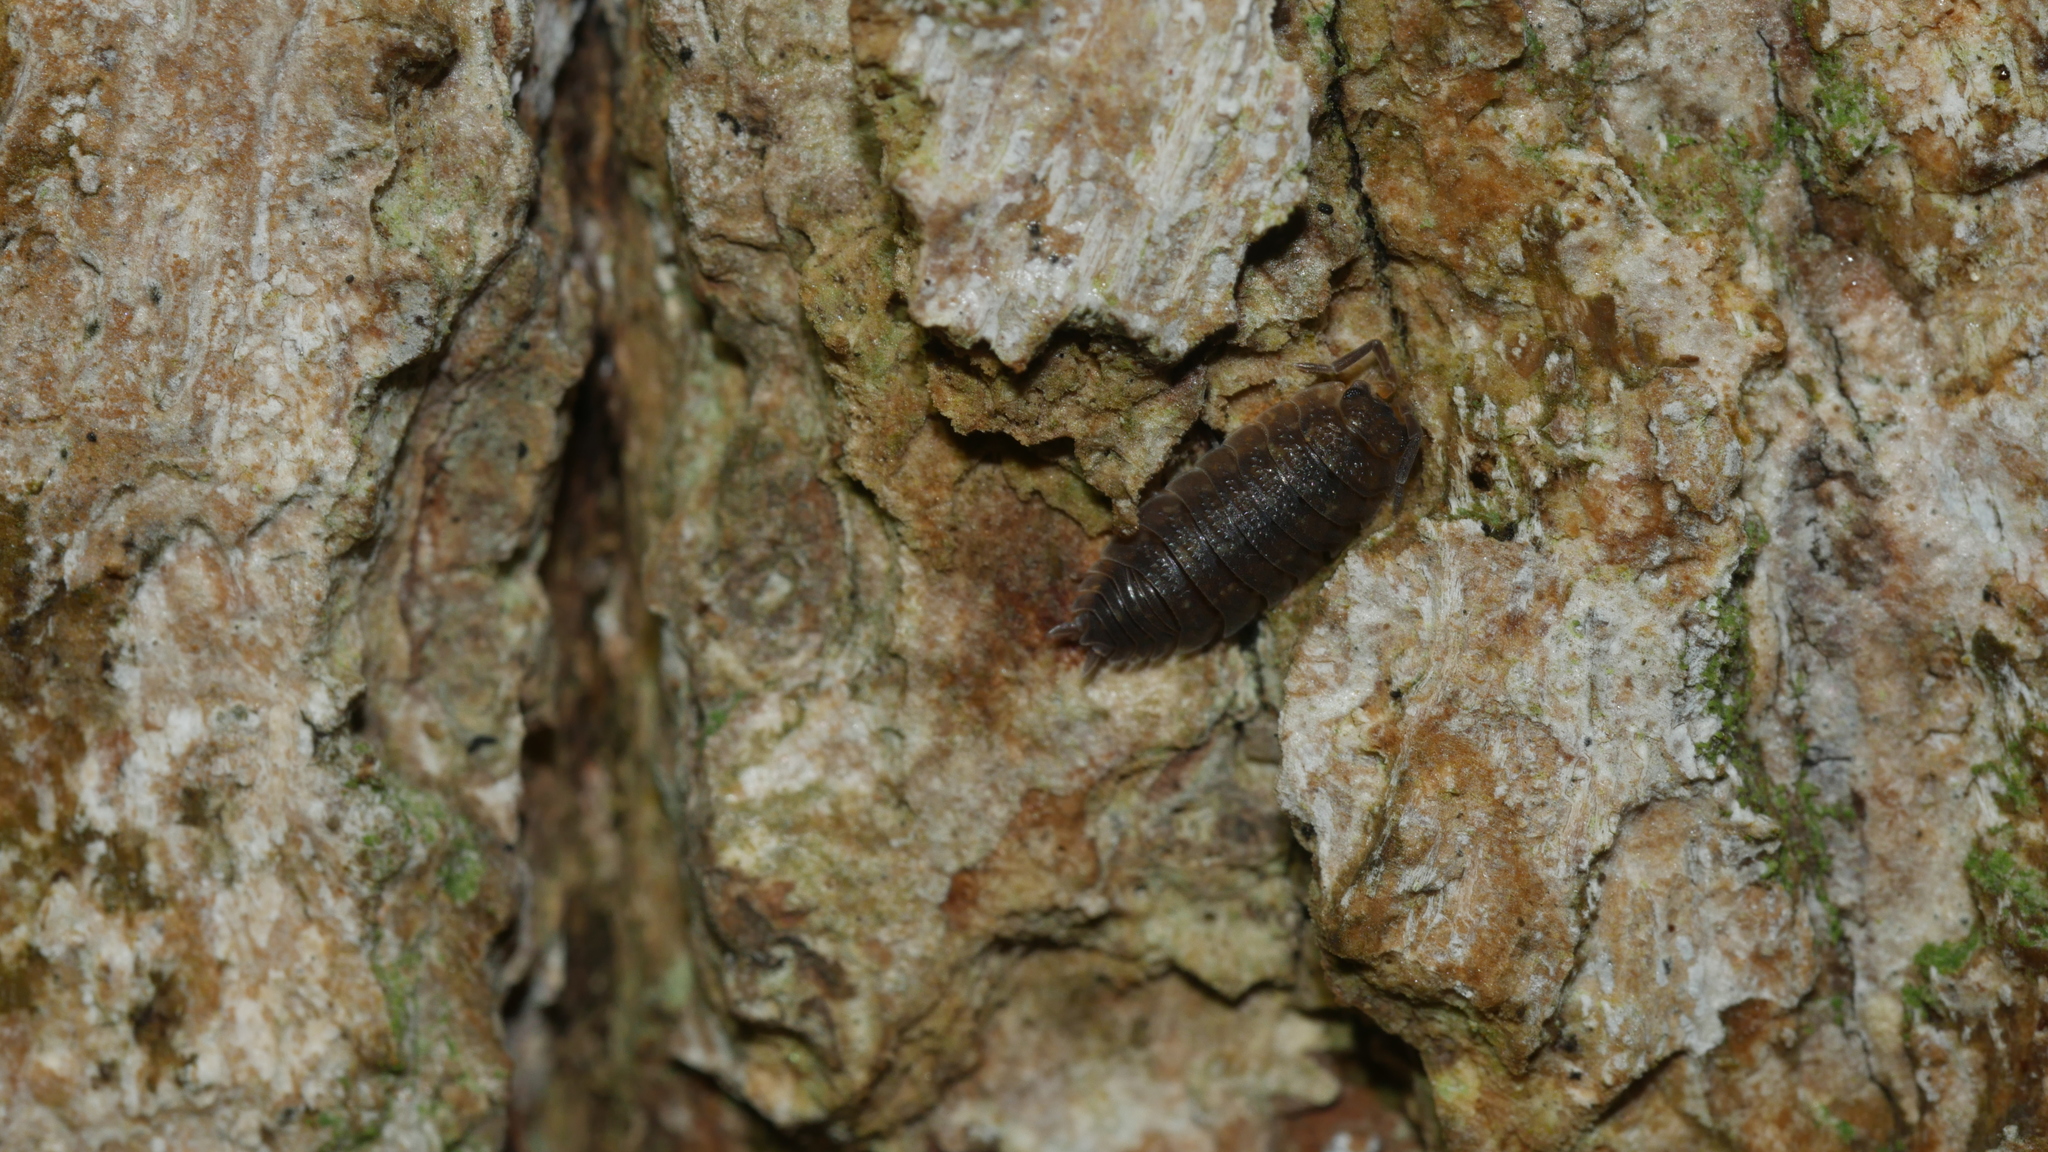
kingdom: Animalia
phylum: Arthropoda
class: Malacostraca
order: Isopoda
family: Porcellionidae
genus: Porcellio
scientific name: Porcellio scaber
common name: Common rough woodlouse
